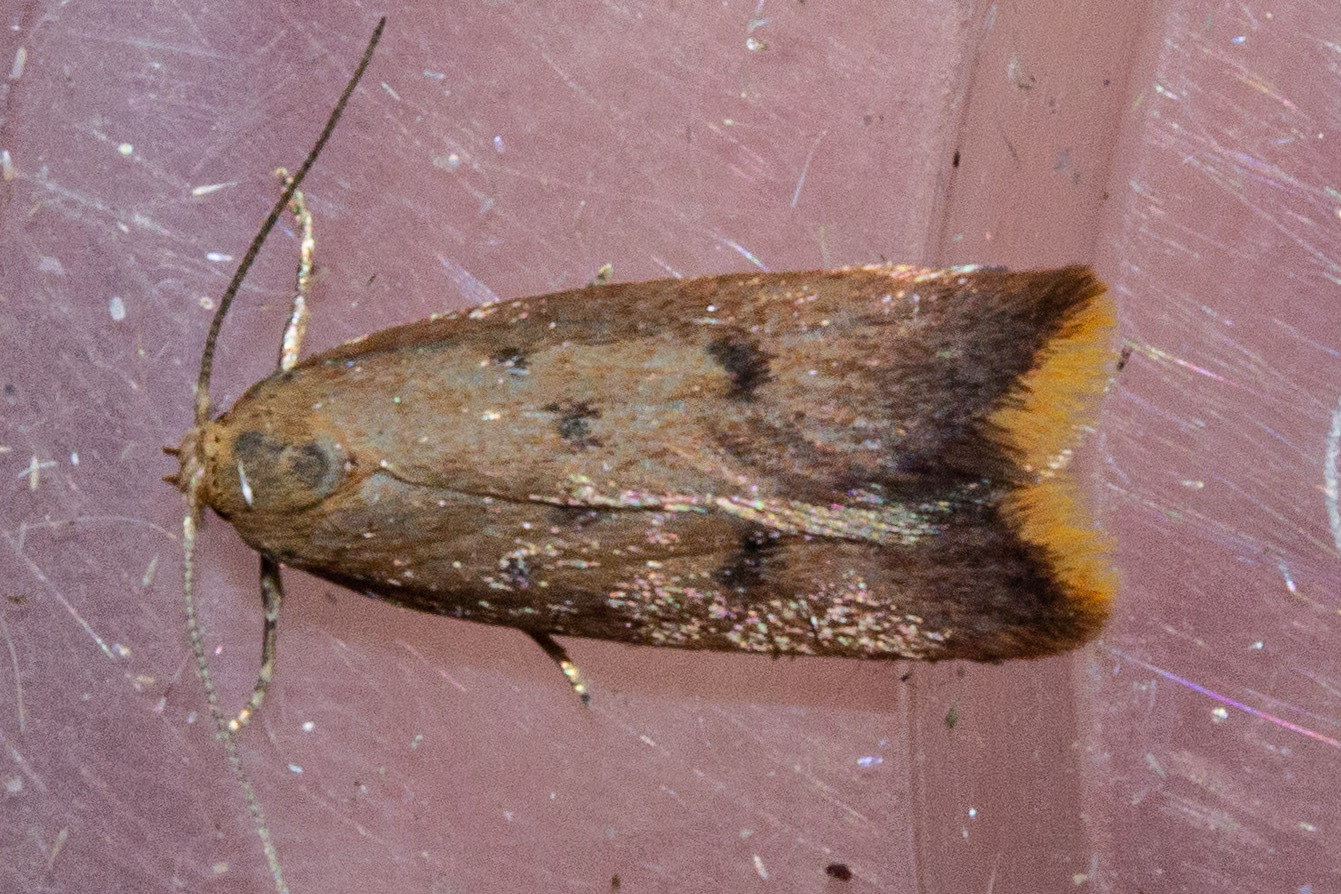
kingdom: Animalia
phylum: Arthropoda
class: Insecta
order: Lepidoptera
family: Oecophoridae
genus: Tachystola
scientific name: Tachystola acroxantha
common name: Ruddy streak
